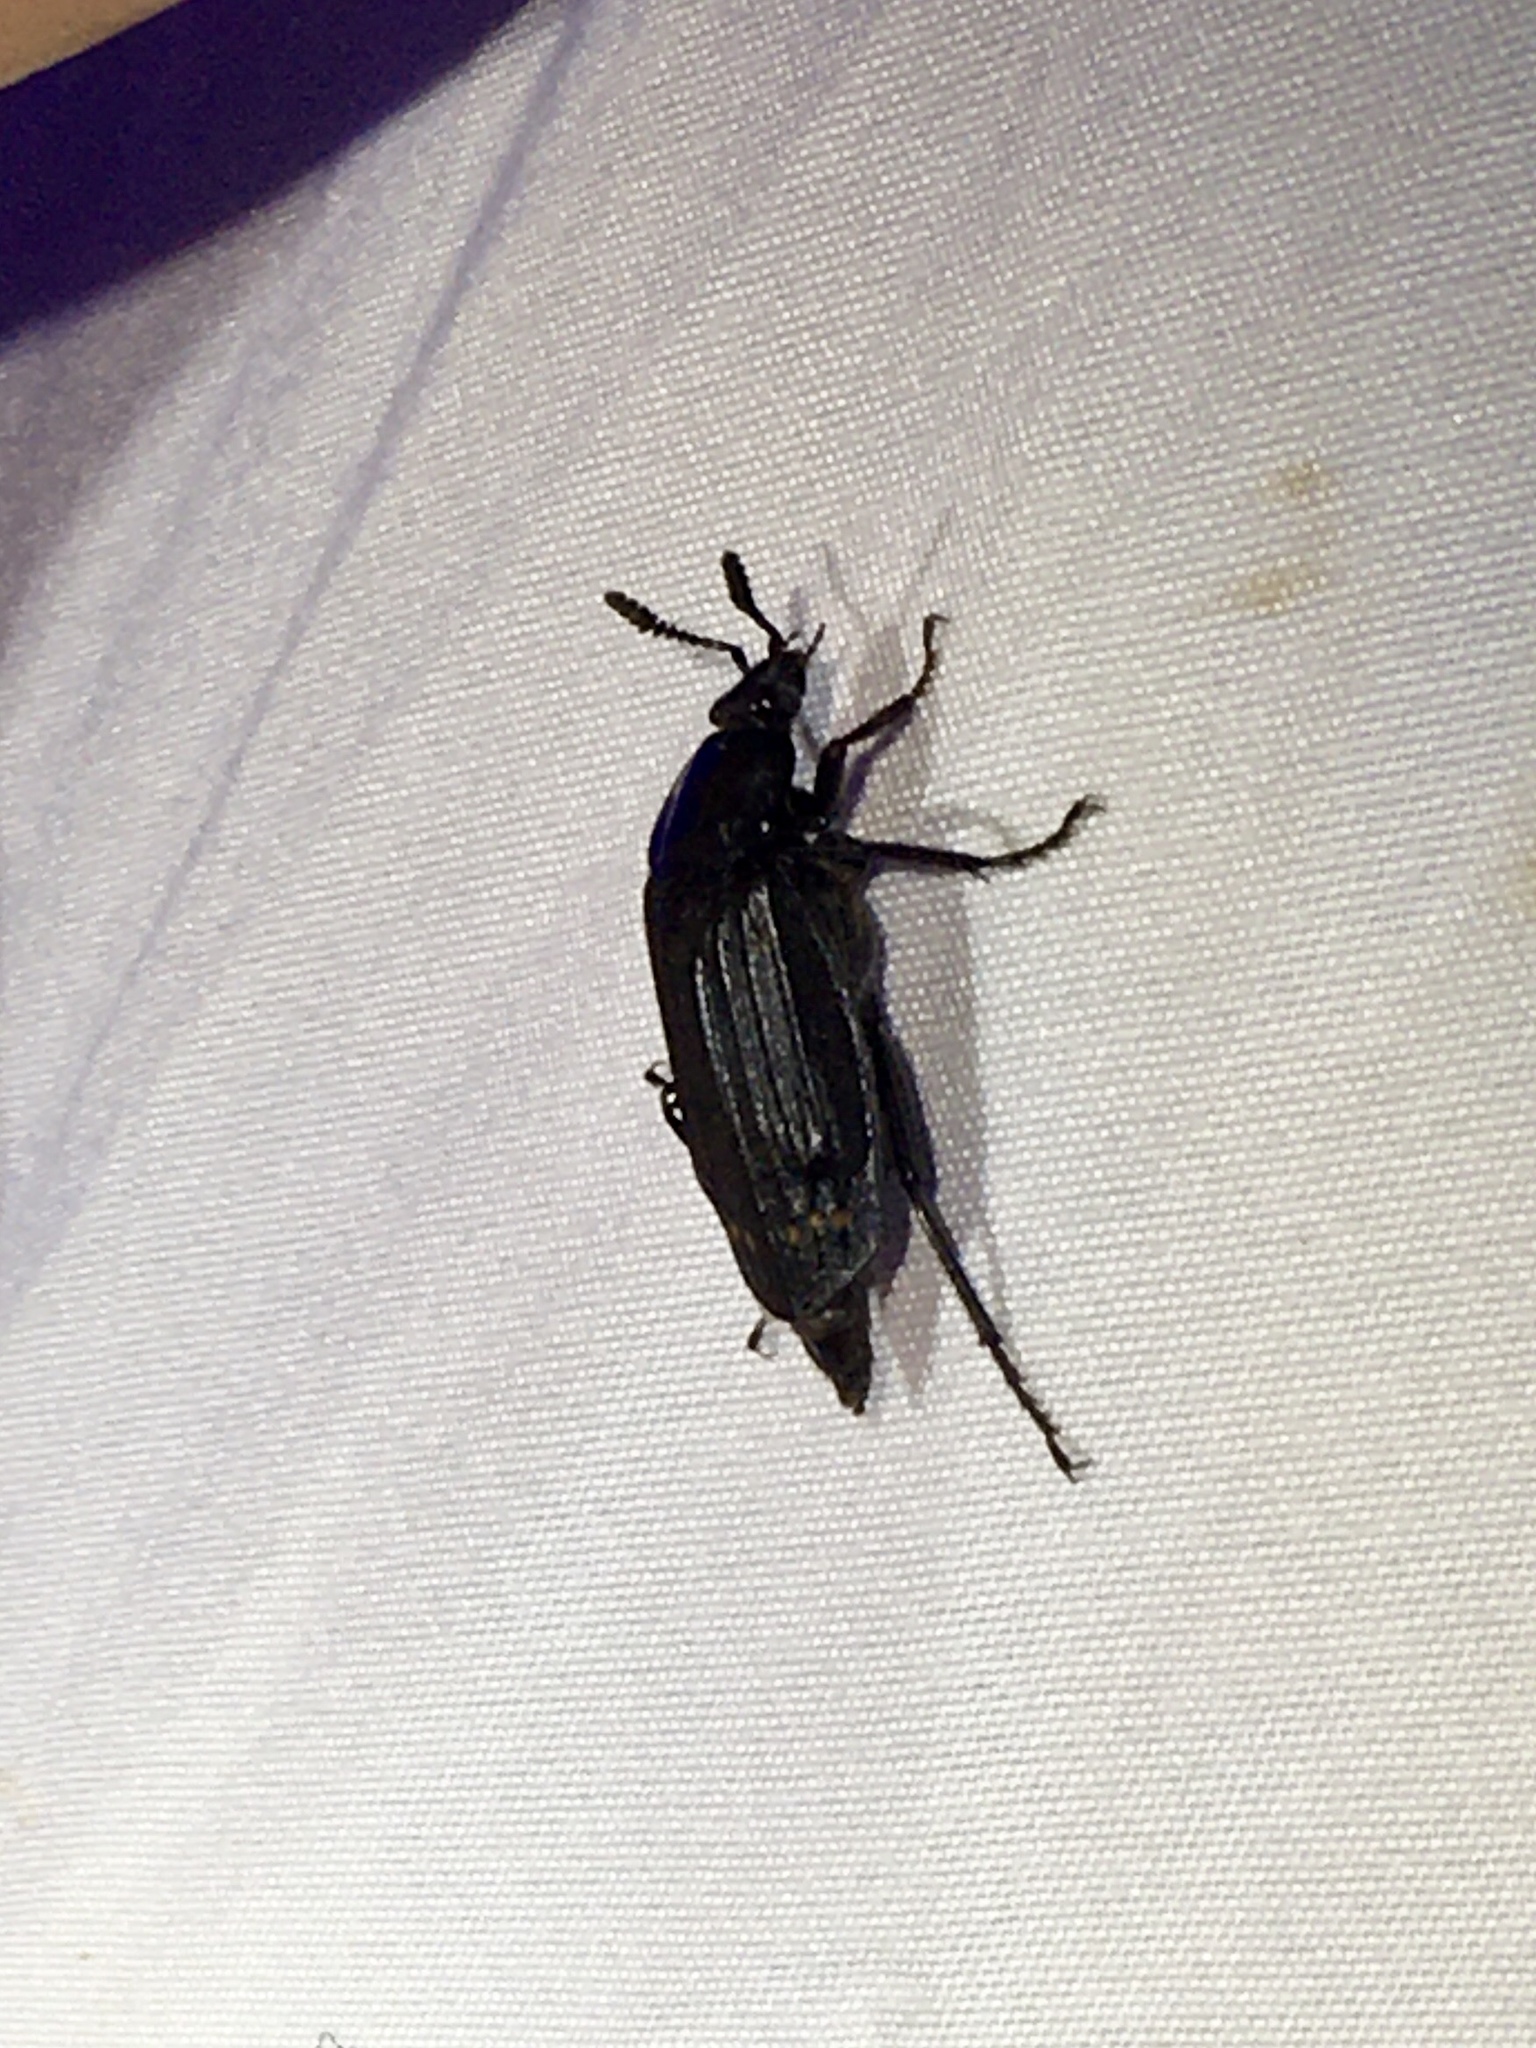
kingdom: Animalia
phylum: Arthropoda
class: Insecta
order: Coleoptera
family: Staphylinidae
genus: Necrodes
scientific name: Necrodes surinamensis
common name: Red-lined carrion beetle
